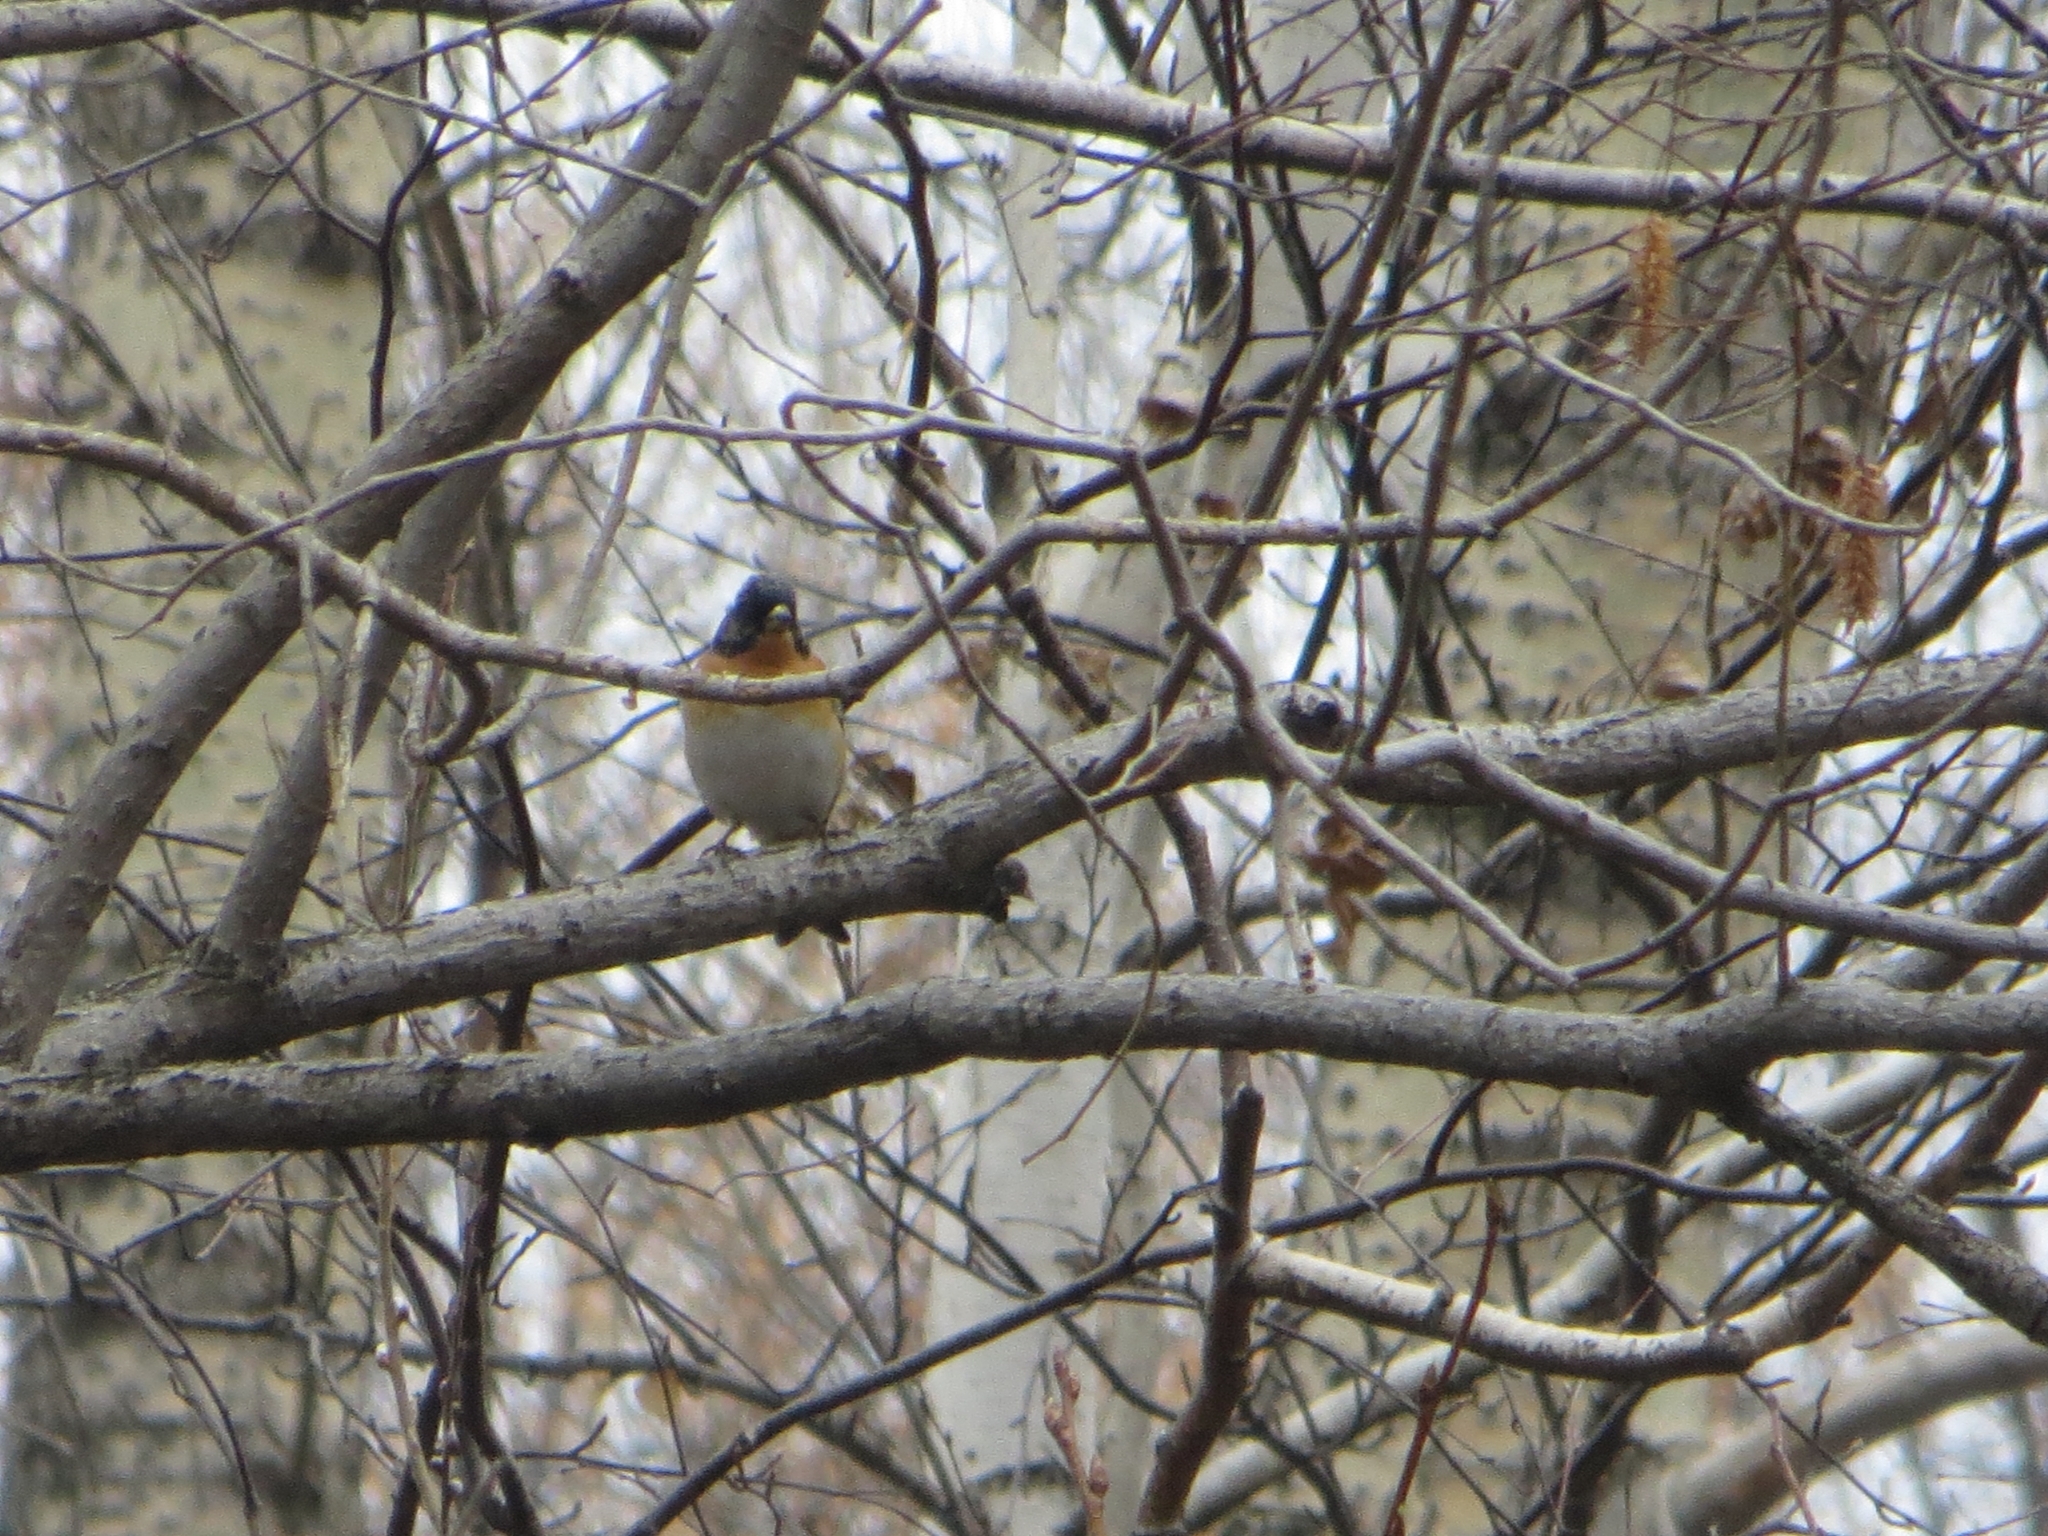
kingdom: Animalia
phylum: Chordata
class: Aves
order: Passeriformes
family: Fringillidae
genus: Fringilla
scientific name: Fringilla montifringilla
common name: Brambling
